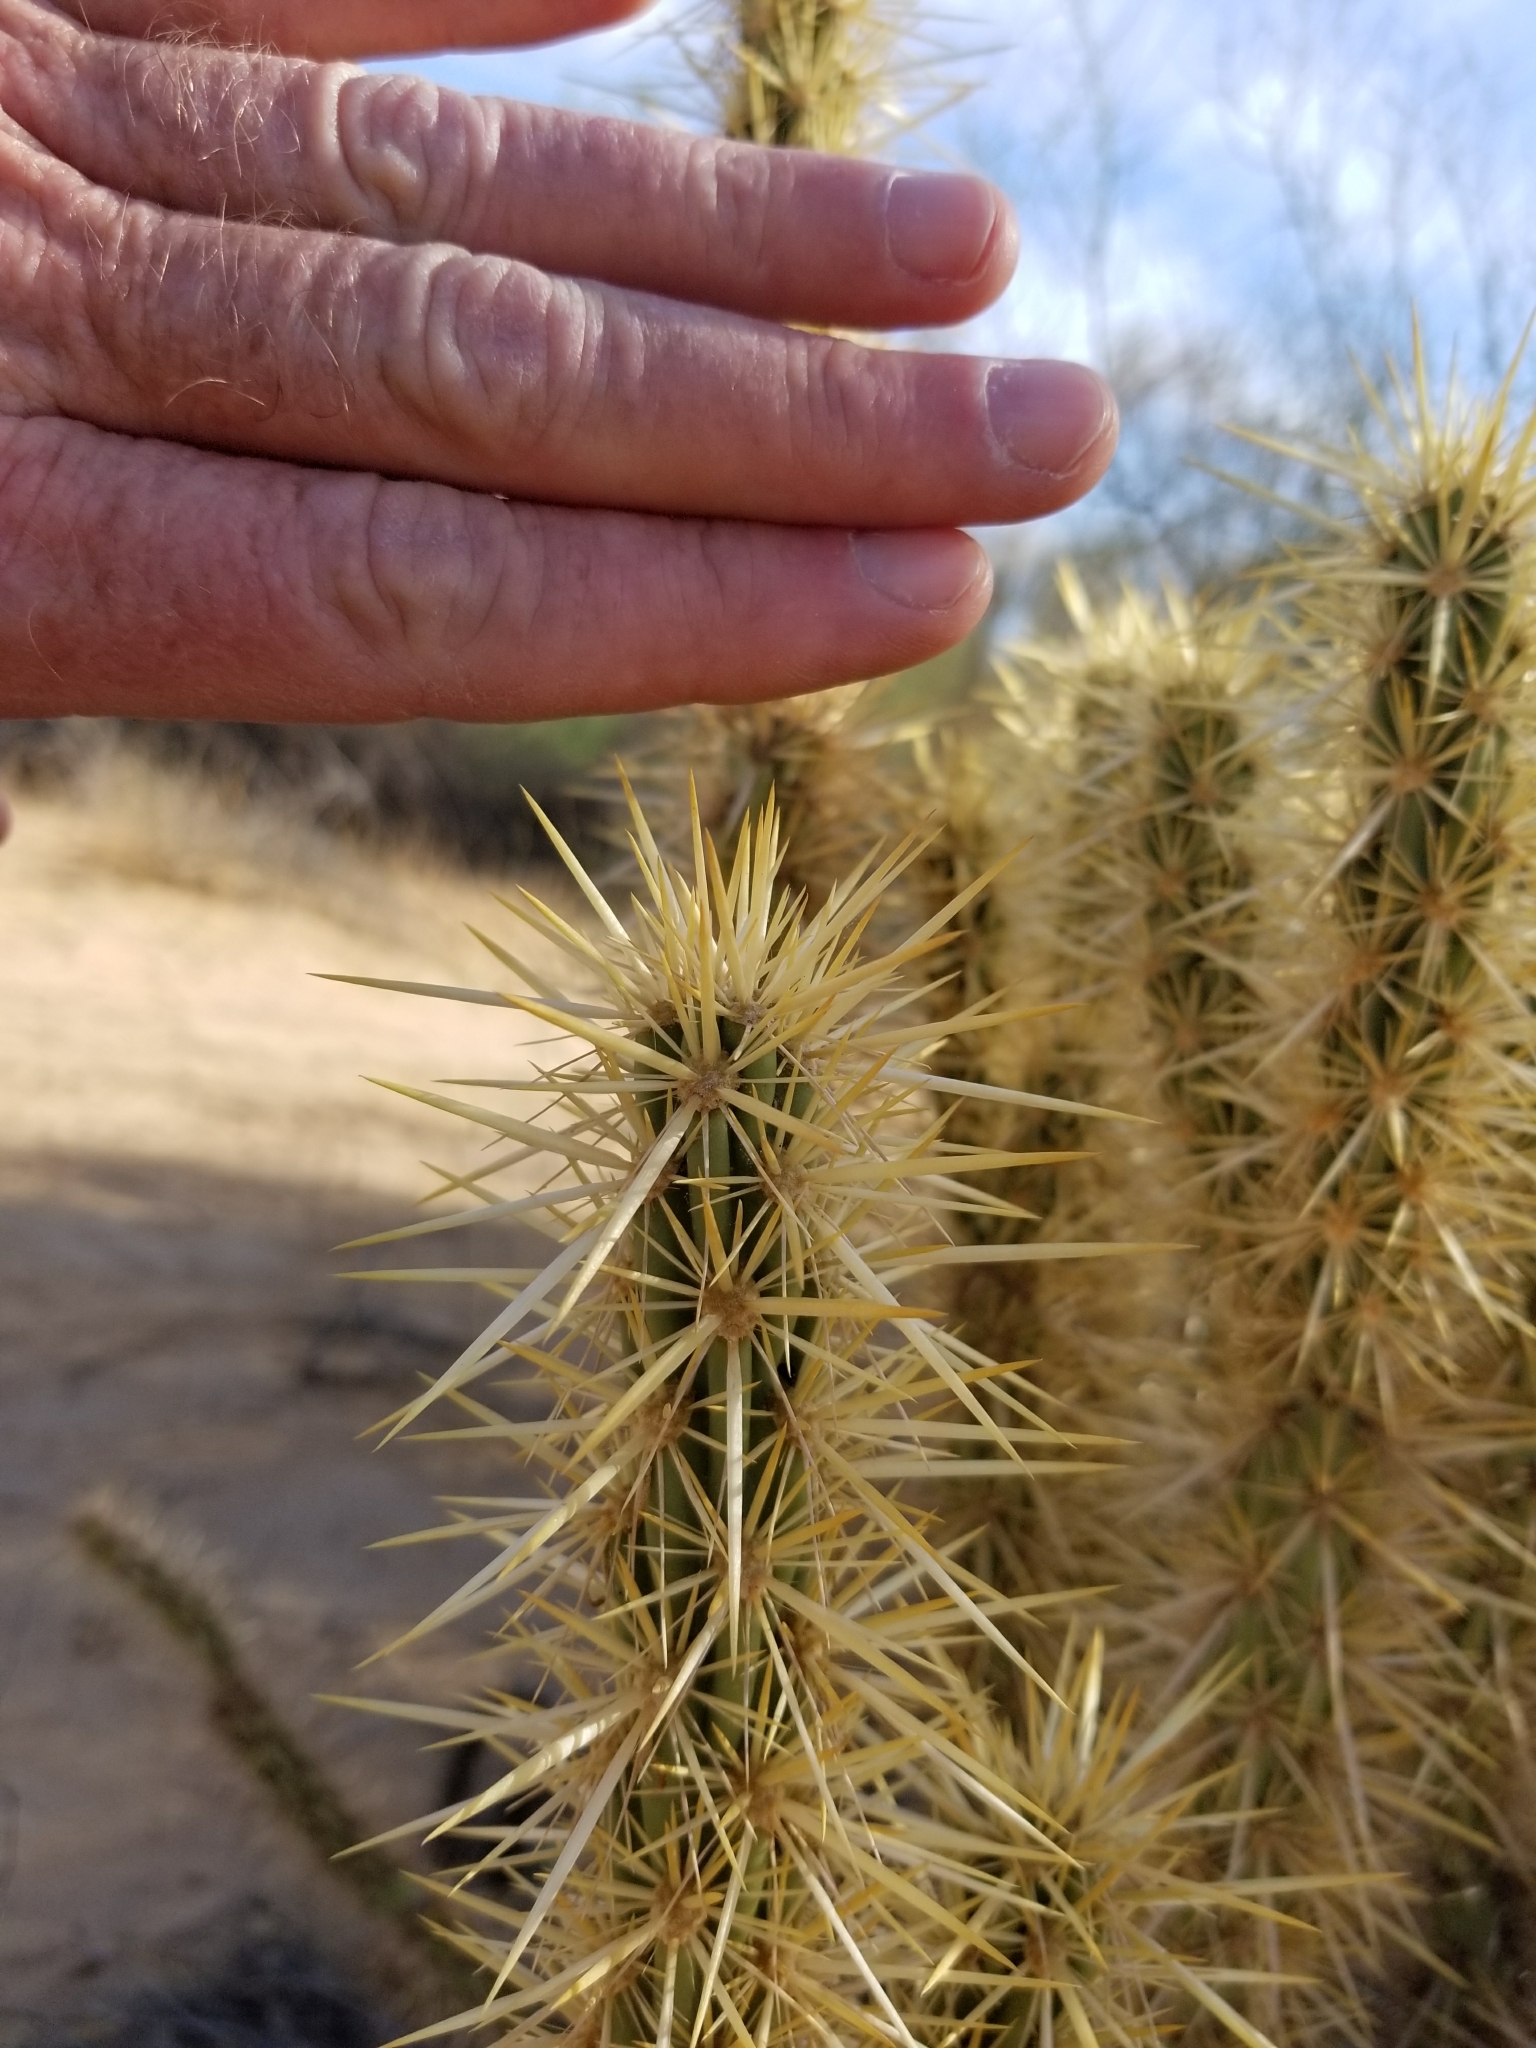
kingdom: Plantae
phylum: Tracheophyta
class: Magnoliopsida
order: Caryophyllales
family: Cactaceae
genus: Cylindropuntia
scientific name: Cylindropuntia acanthocarpa
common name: Buckhorn cholla
